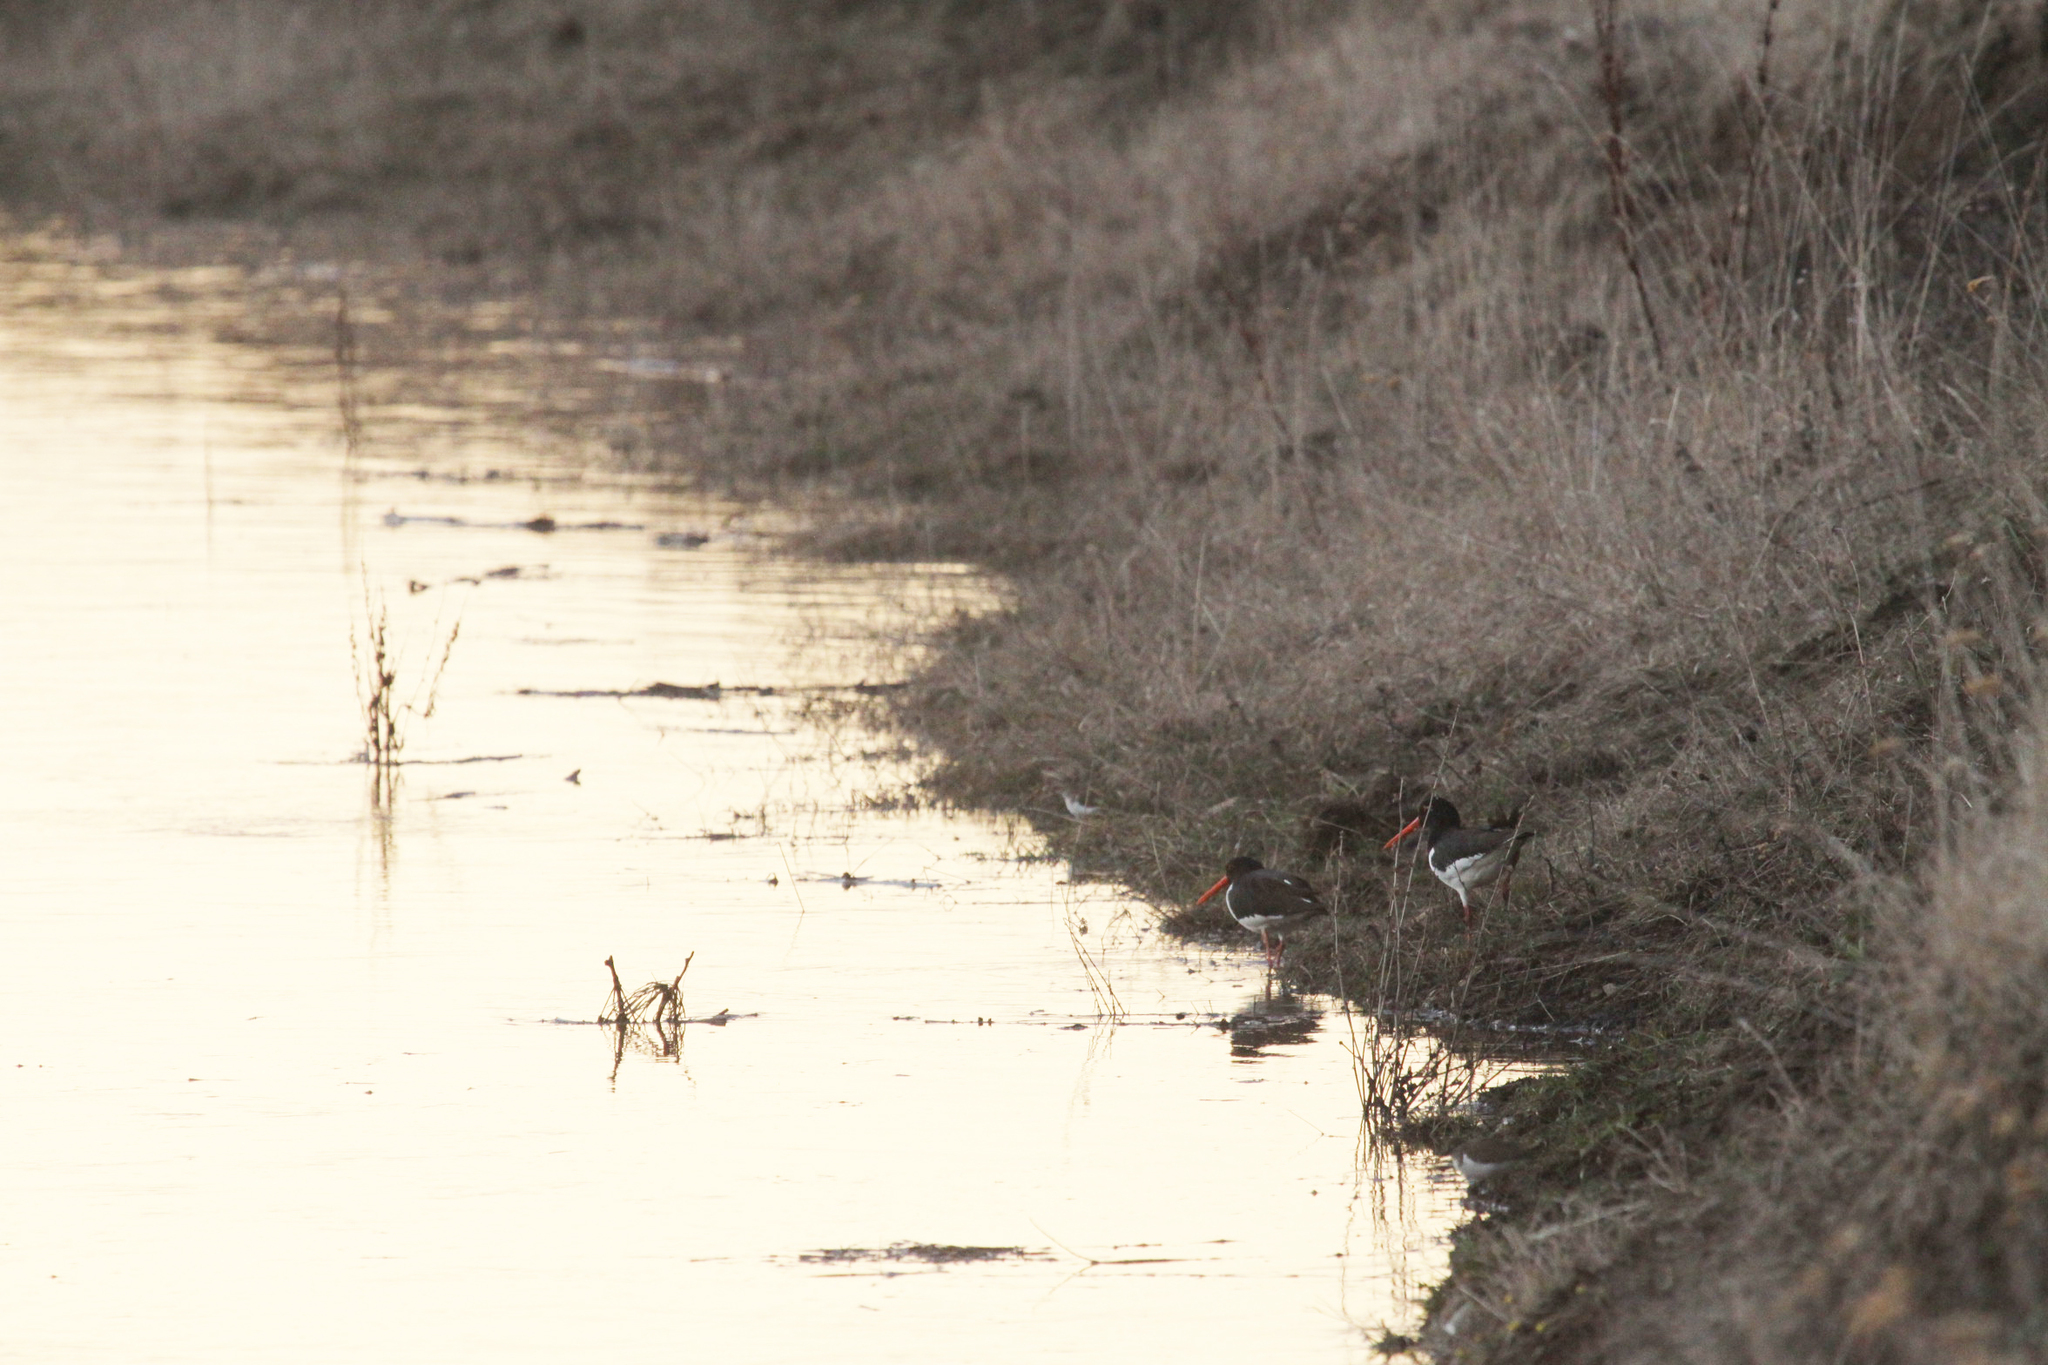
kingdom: Animalia
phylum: Chordata
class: Aves
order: Charadriiformes
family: Haematopodidae
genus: Haematopus
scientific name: Haematopus ostralegus
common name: Eurasian oystercatcher
